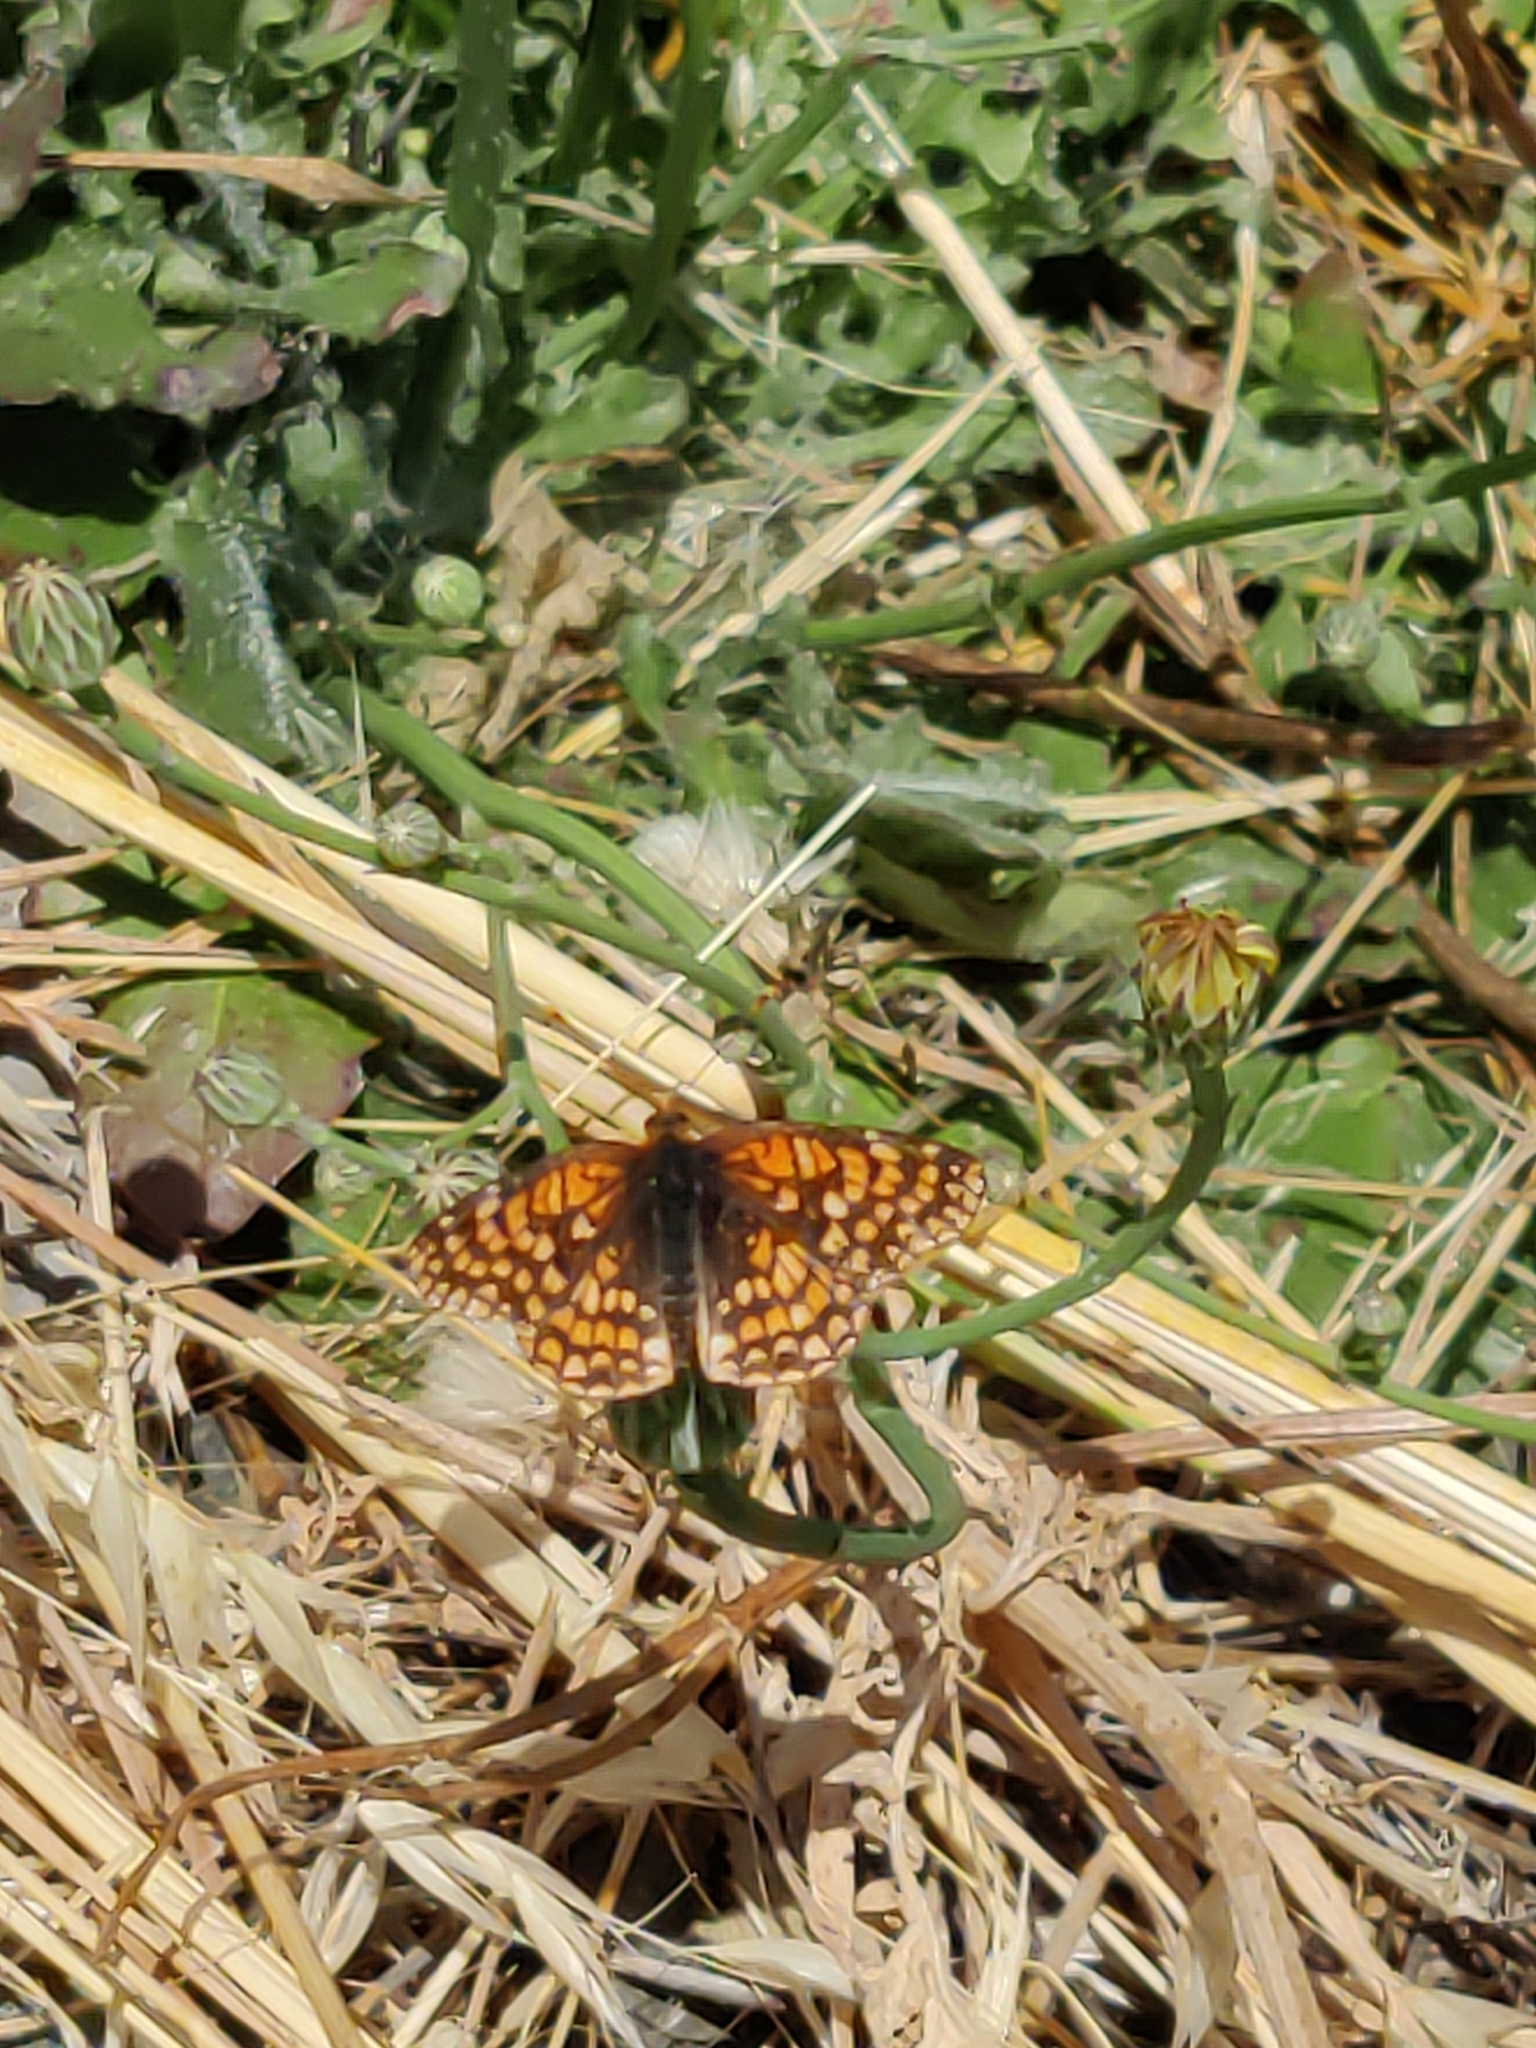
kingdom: Animalia
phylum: Arthropoda
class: Insecta
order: Lepidoptera
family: Nymphalidae
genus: Chlosyne
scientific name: Chlosyne palla
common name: Northern checkerspot
